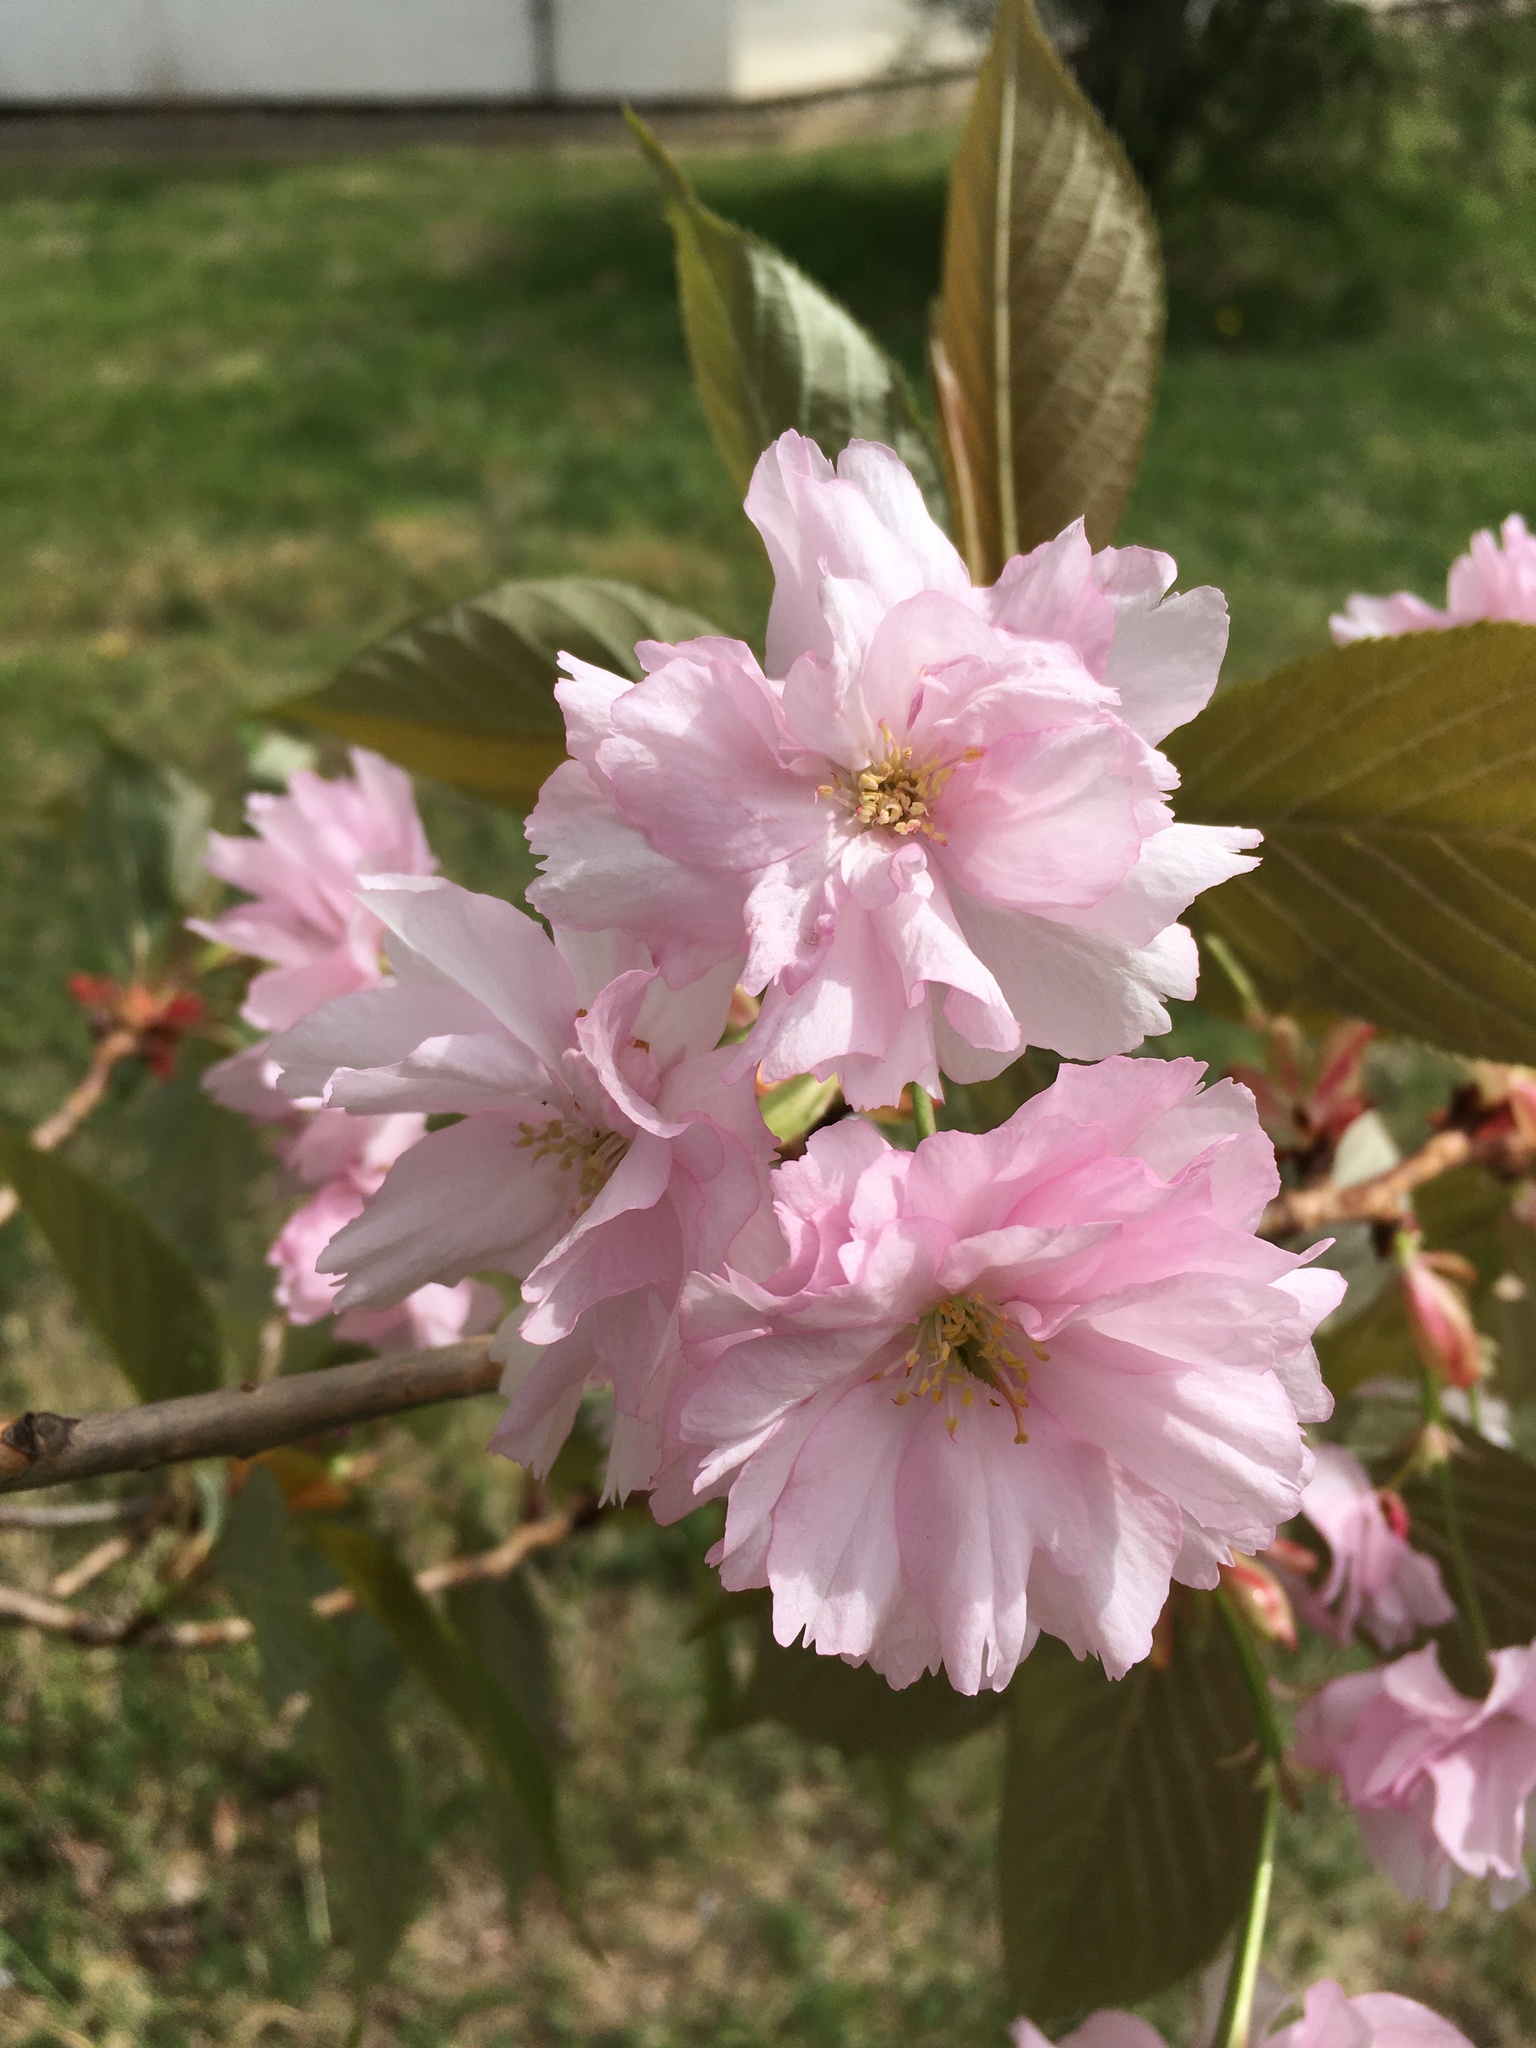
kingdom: Plantae
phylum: Tracheophyta
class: Magnoliopsida
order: Rosales
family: Rosaceae
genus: Prunus
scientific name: Prunus serrulata
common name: Japanese cherry
